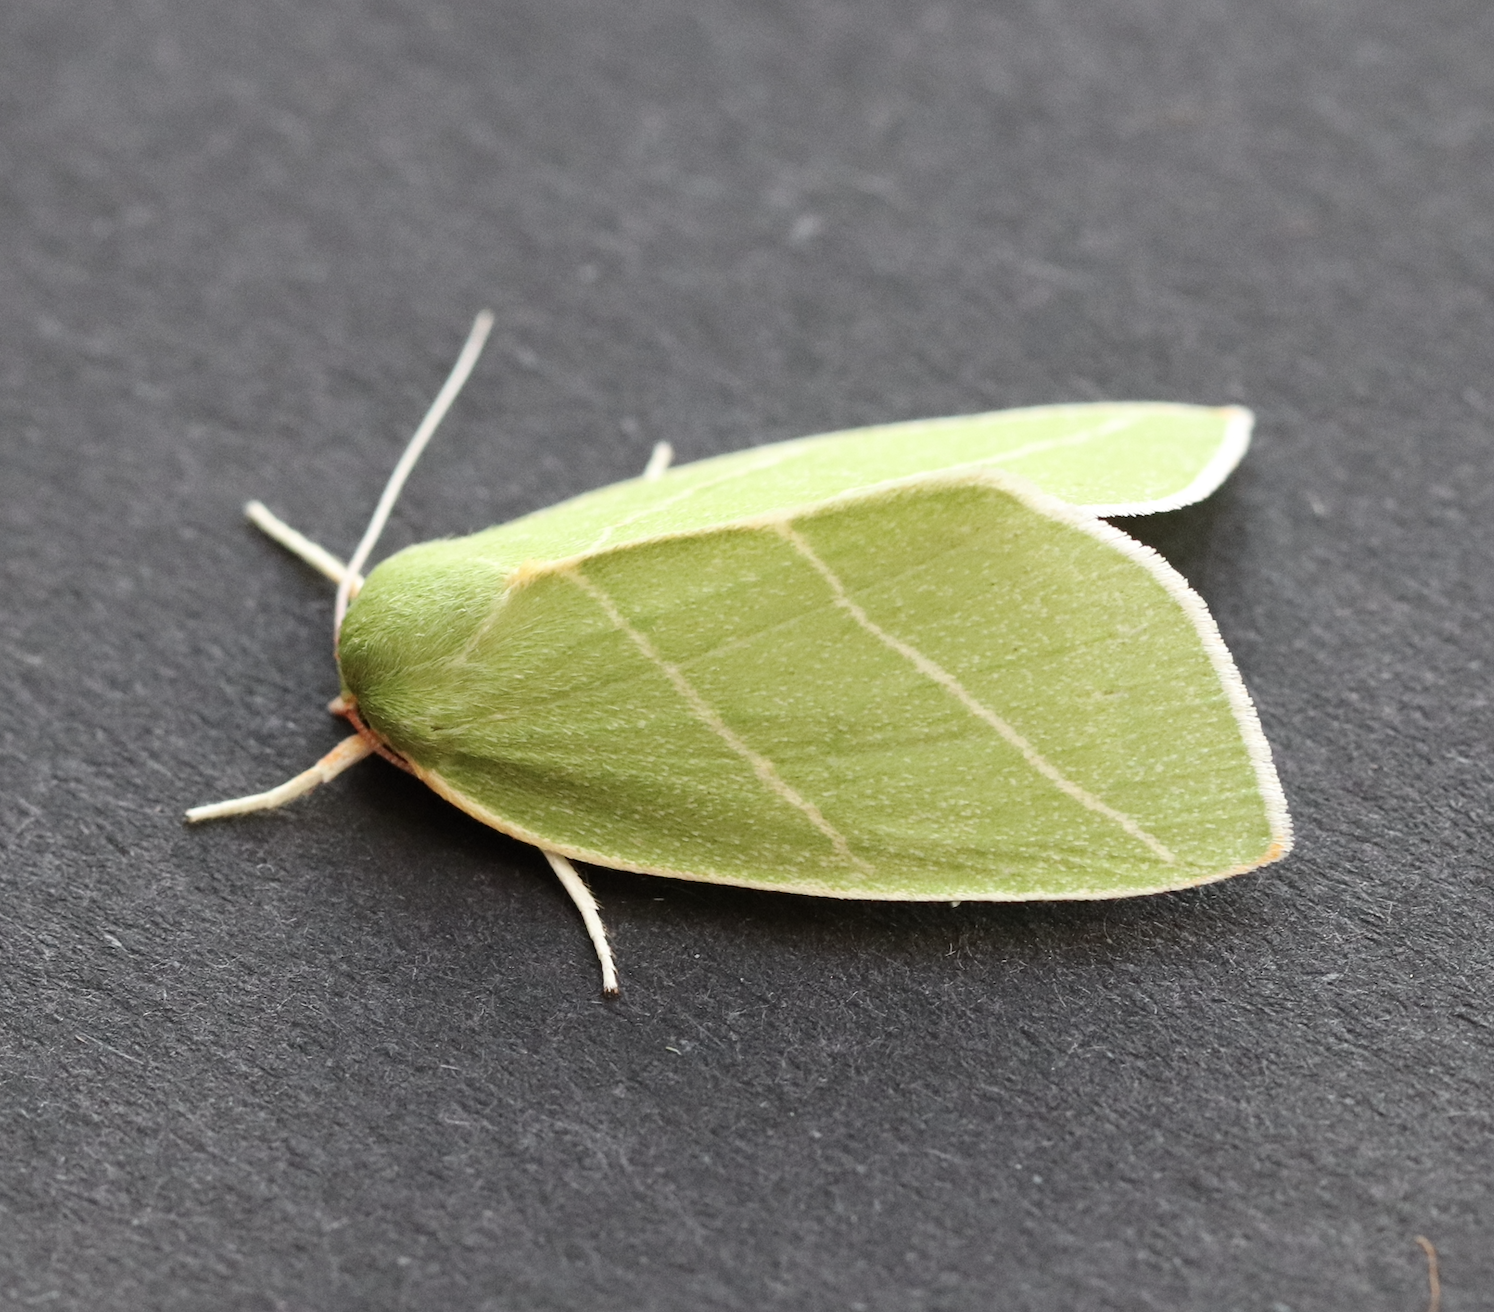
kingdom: Animalia
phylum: Arthropoda
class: Insecta
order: Lepidoptera
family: Nolidae
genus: Bena
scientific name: Bena bicolorana
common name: Scarce silver-lines
